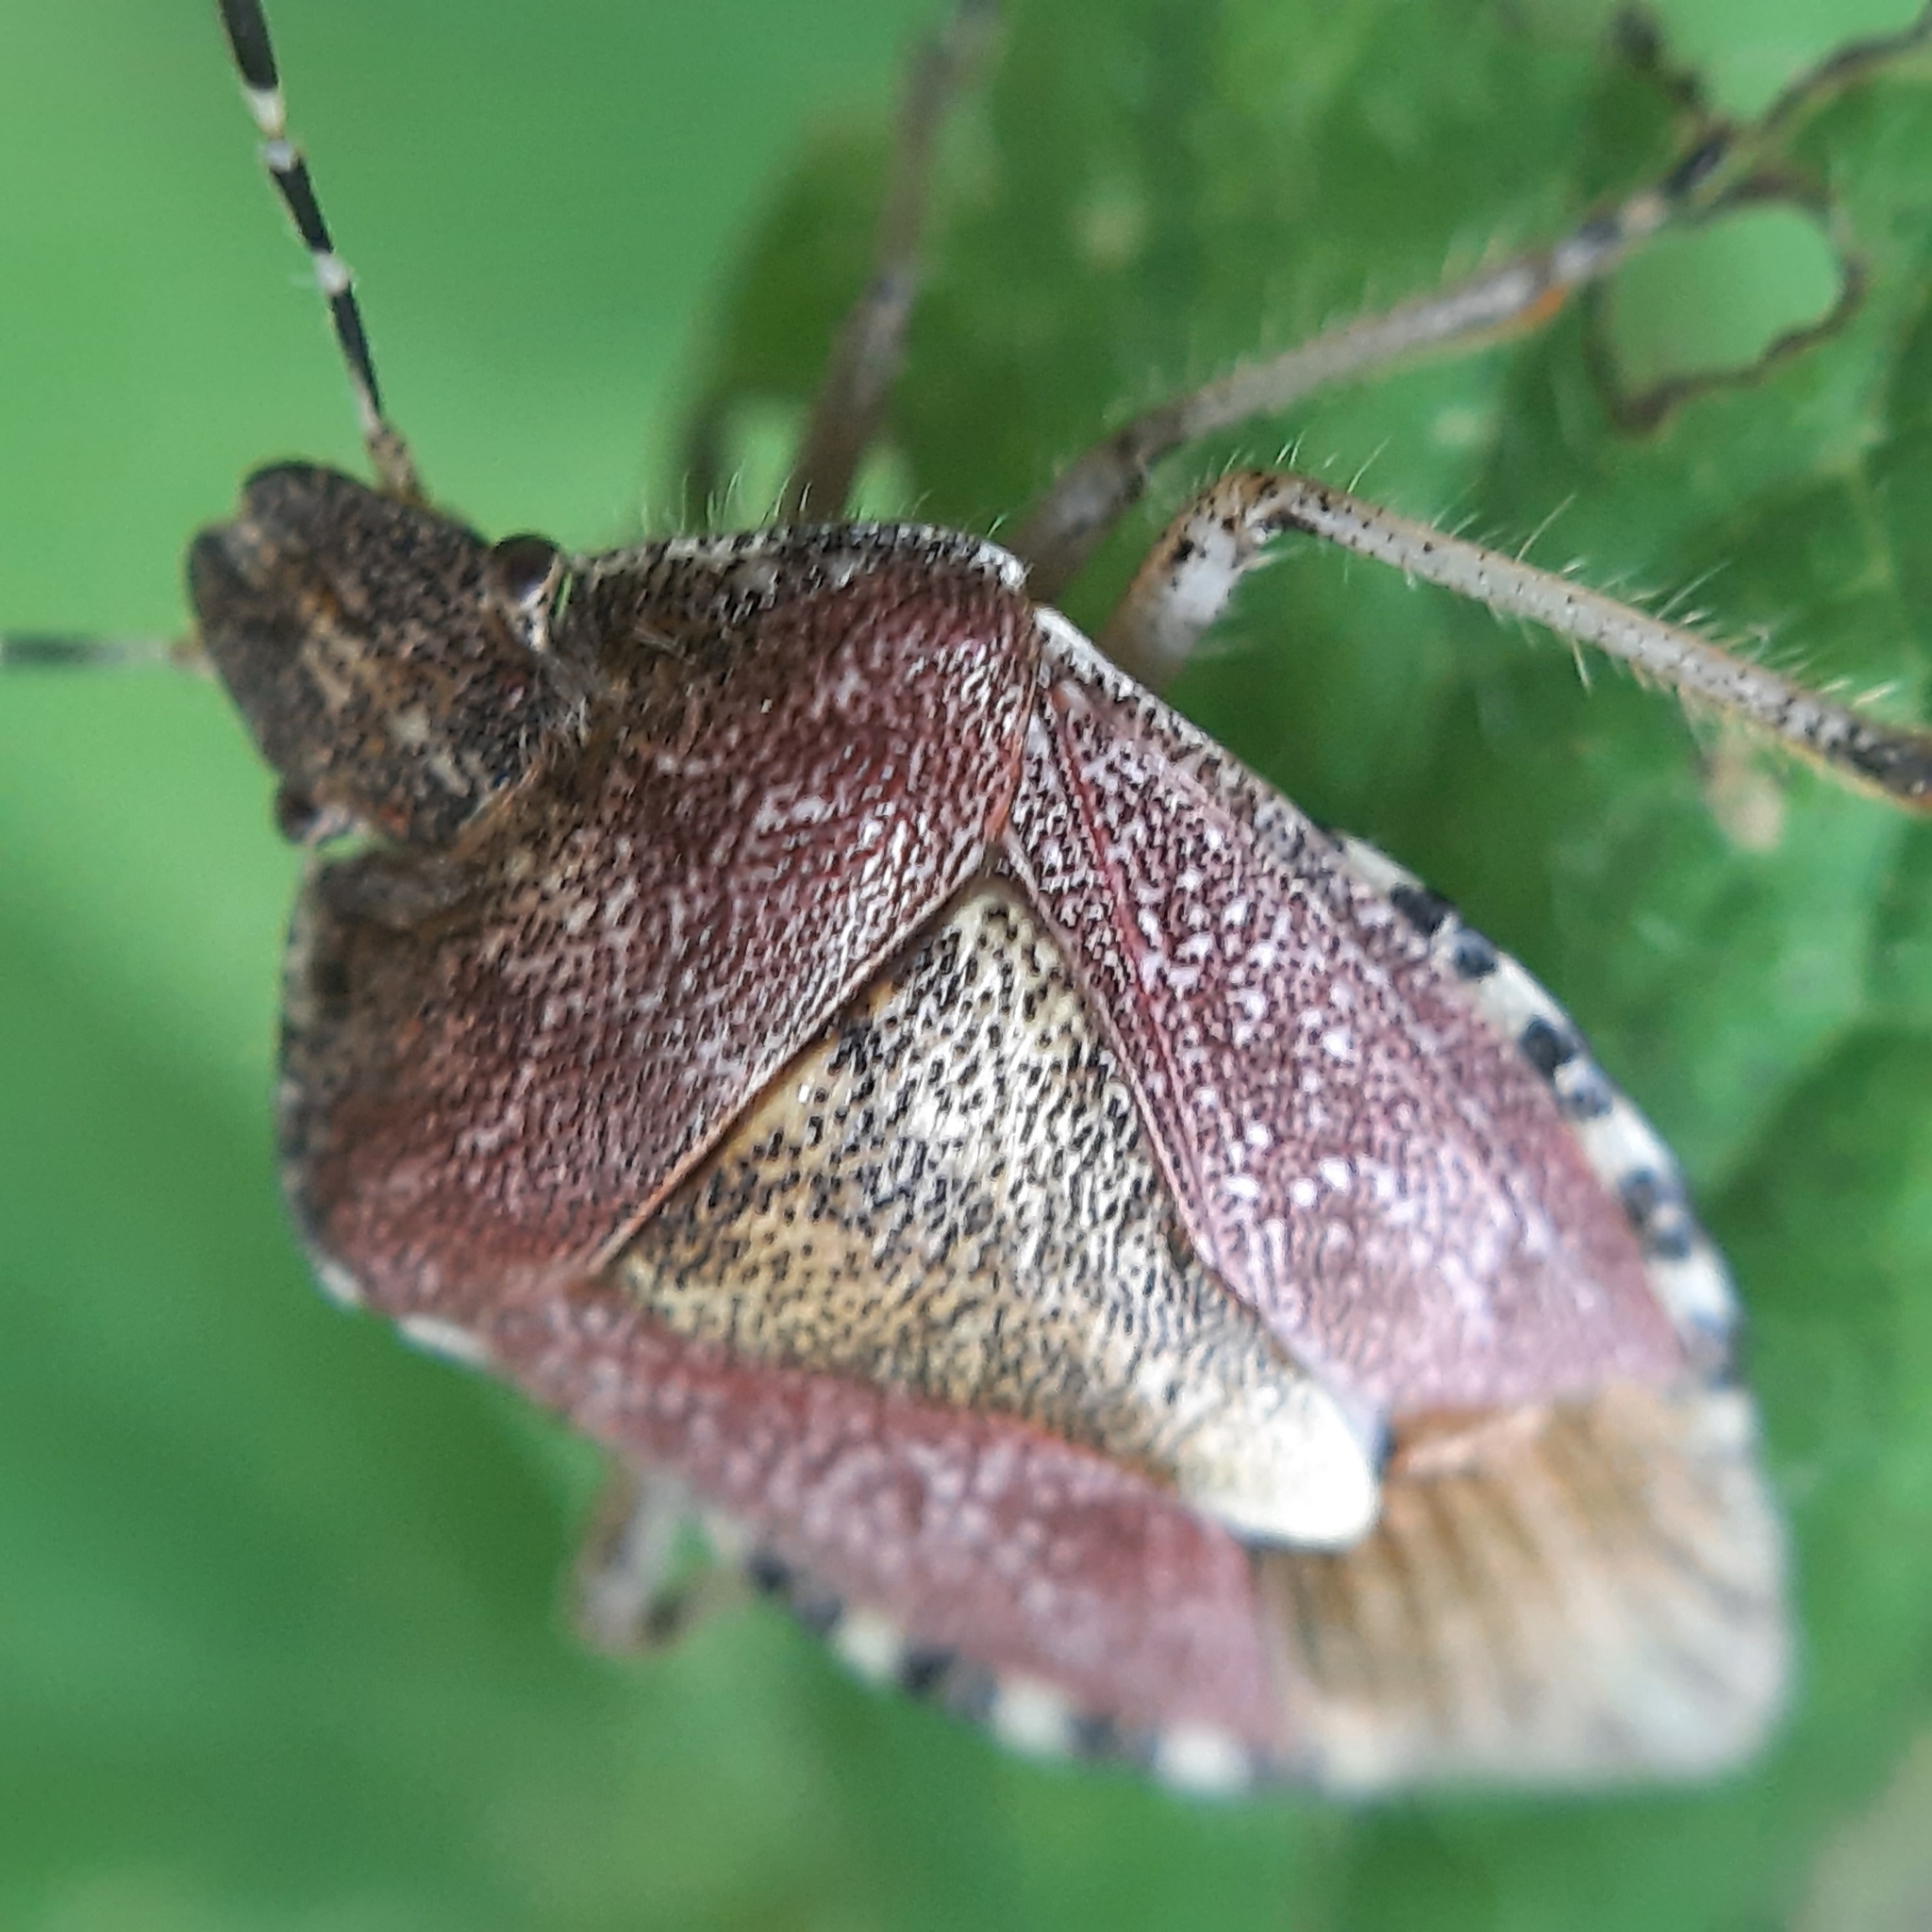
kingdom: Animalia
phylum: Arthropoda
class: Insecta
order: Hemiptera
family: Pentatomidae
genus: Dolycoris
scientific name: Dolycoris baccarum
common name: Sloe bug
